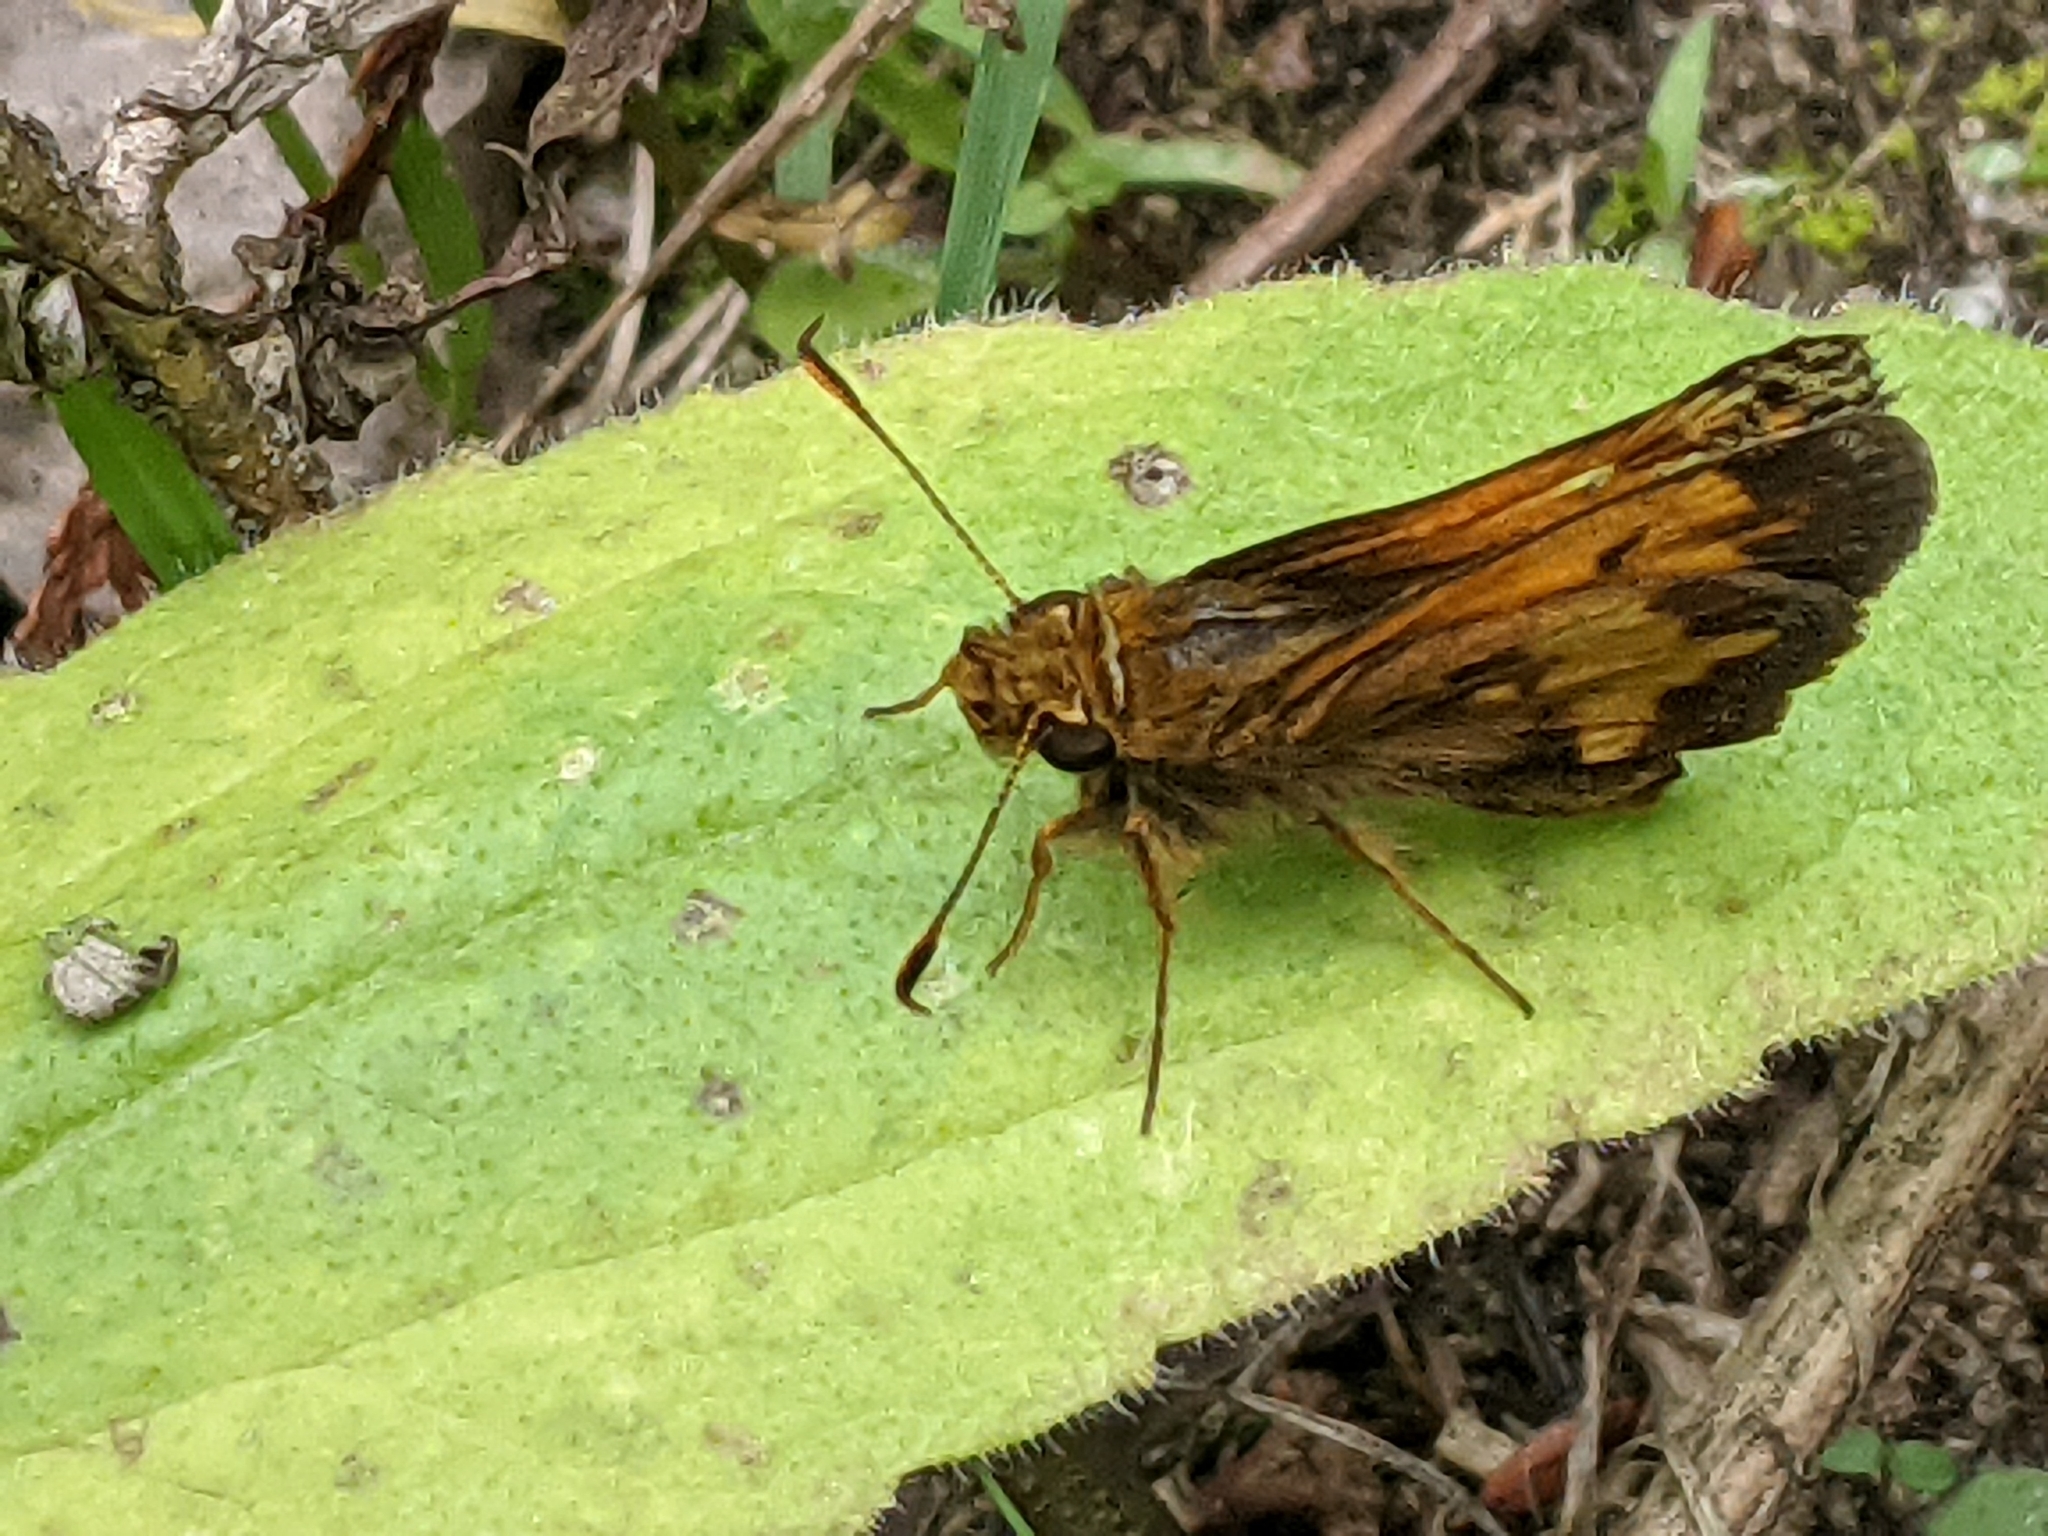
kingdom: Animalia
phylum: Arthropoda
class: Insecta
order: Lepidoptera
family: Hesperiidae
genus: Lon
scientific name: Lon hobomok
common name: Hobomok skipper
